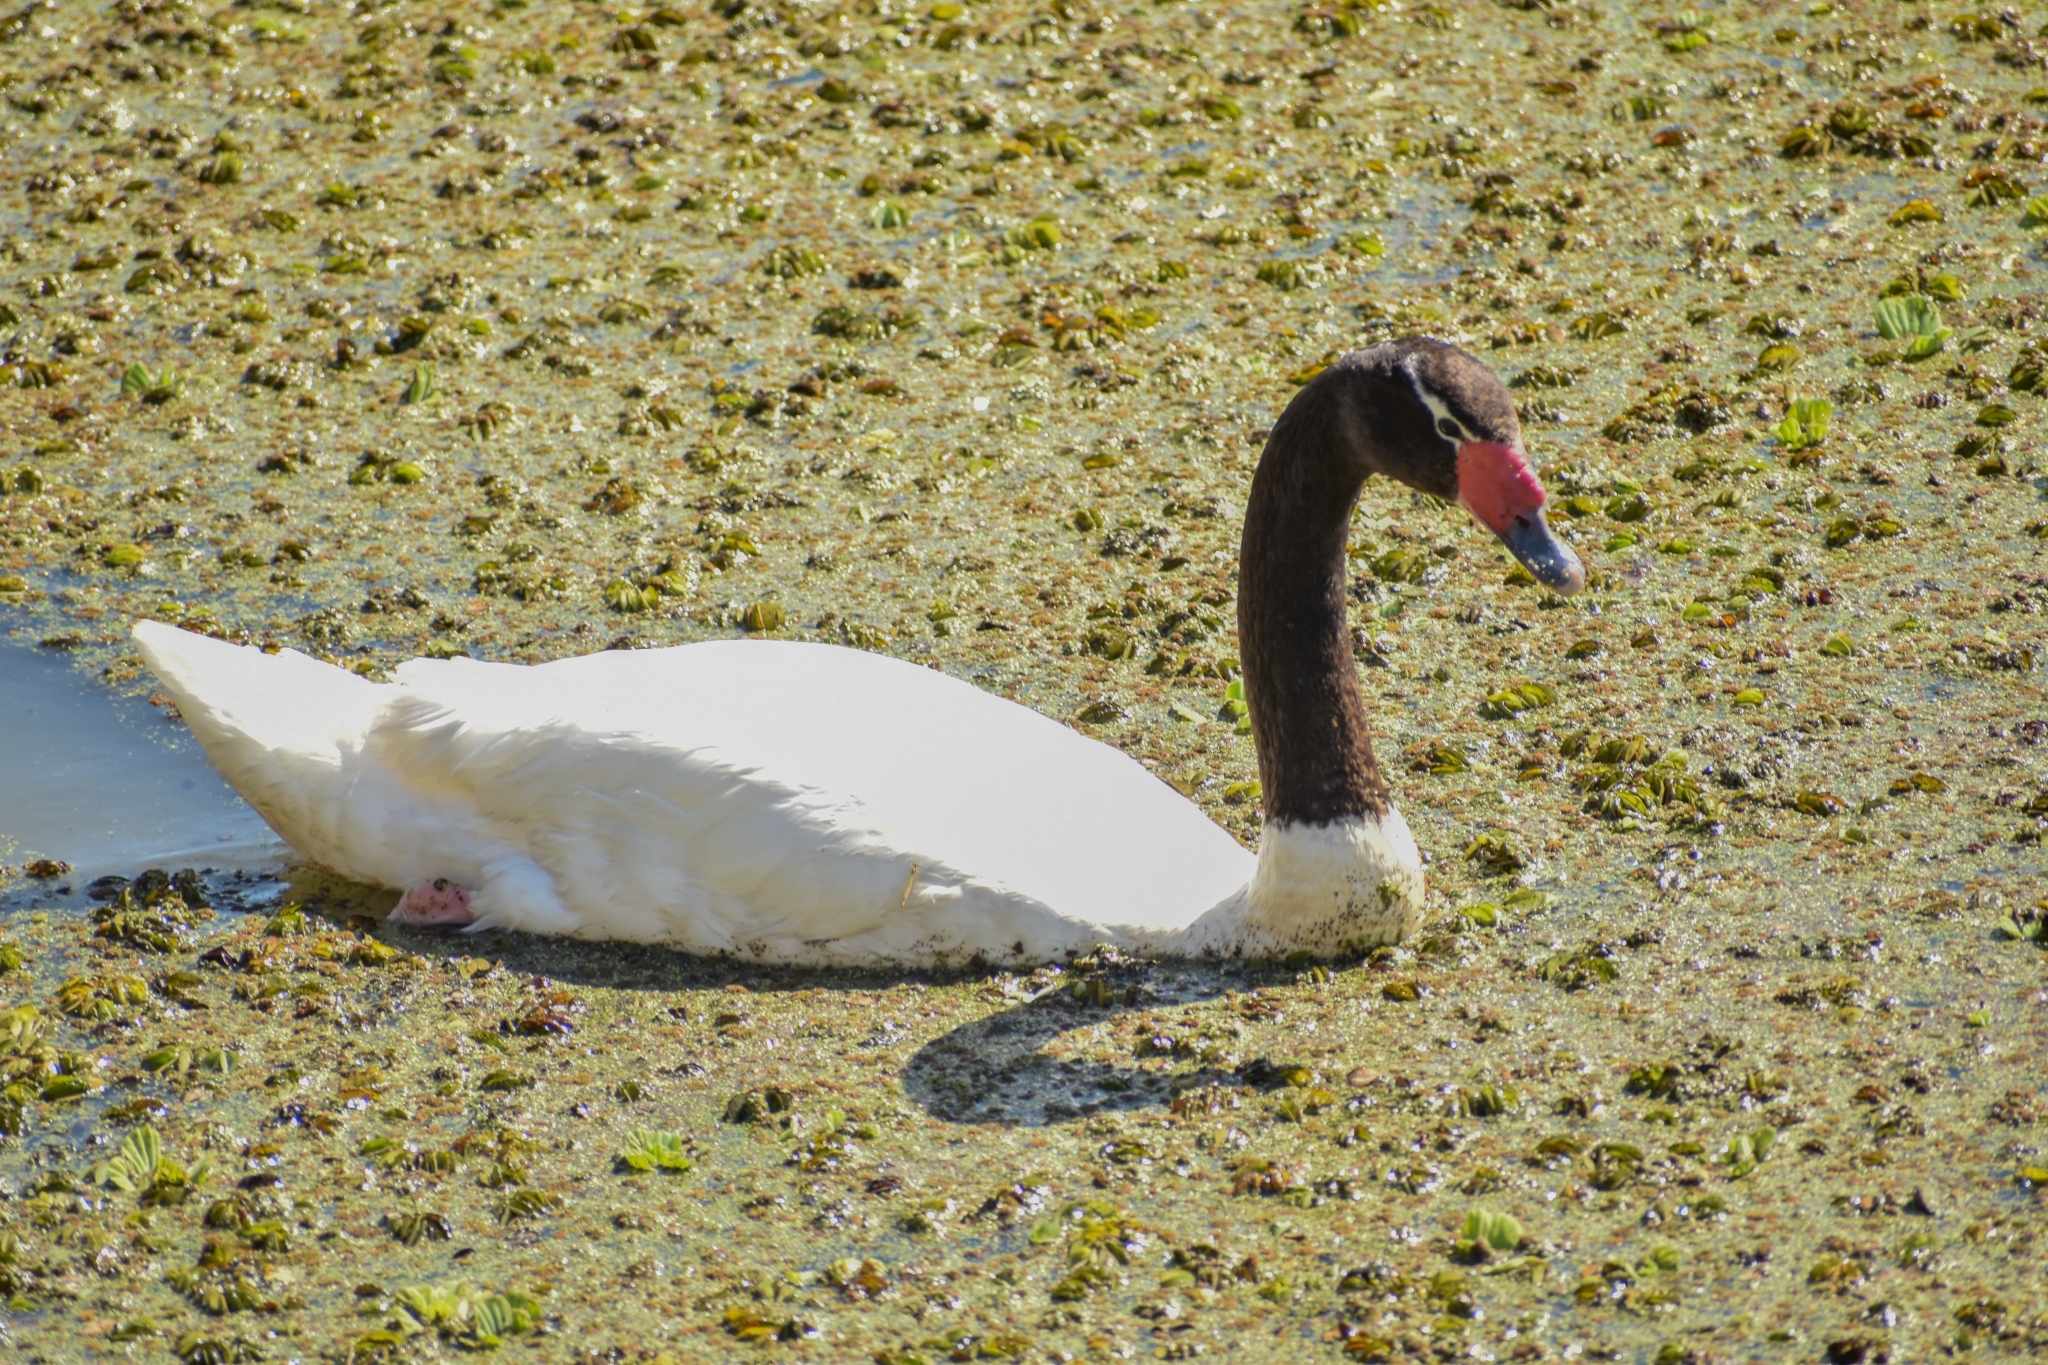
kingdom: Animalia
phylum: Chordata
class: Aves
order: Anseriformes
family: Anatidae
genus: Cygnus
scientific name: Cygnus melancoryphus
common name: Black-necked swan
